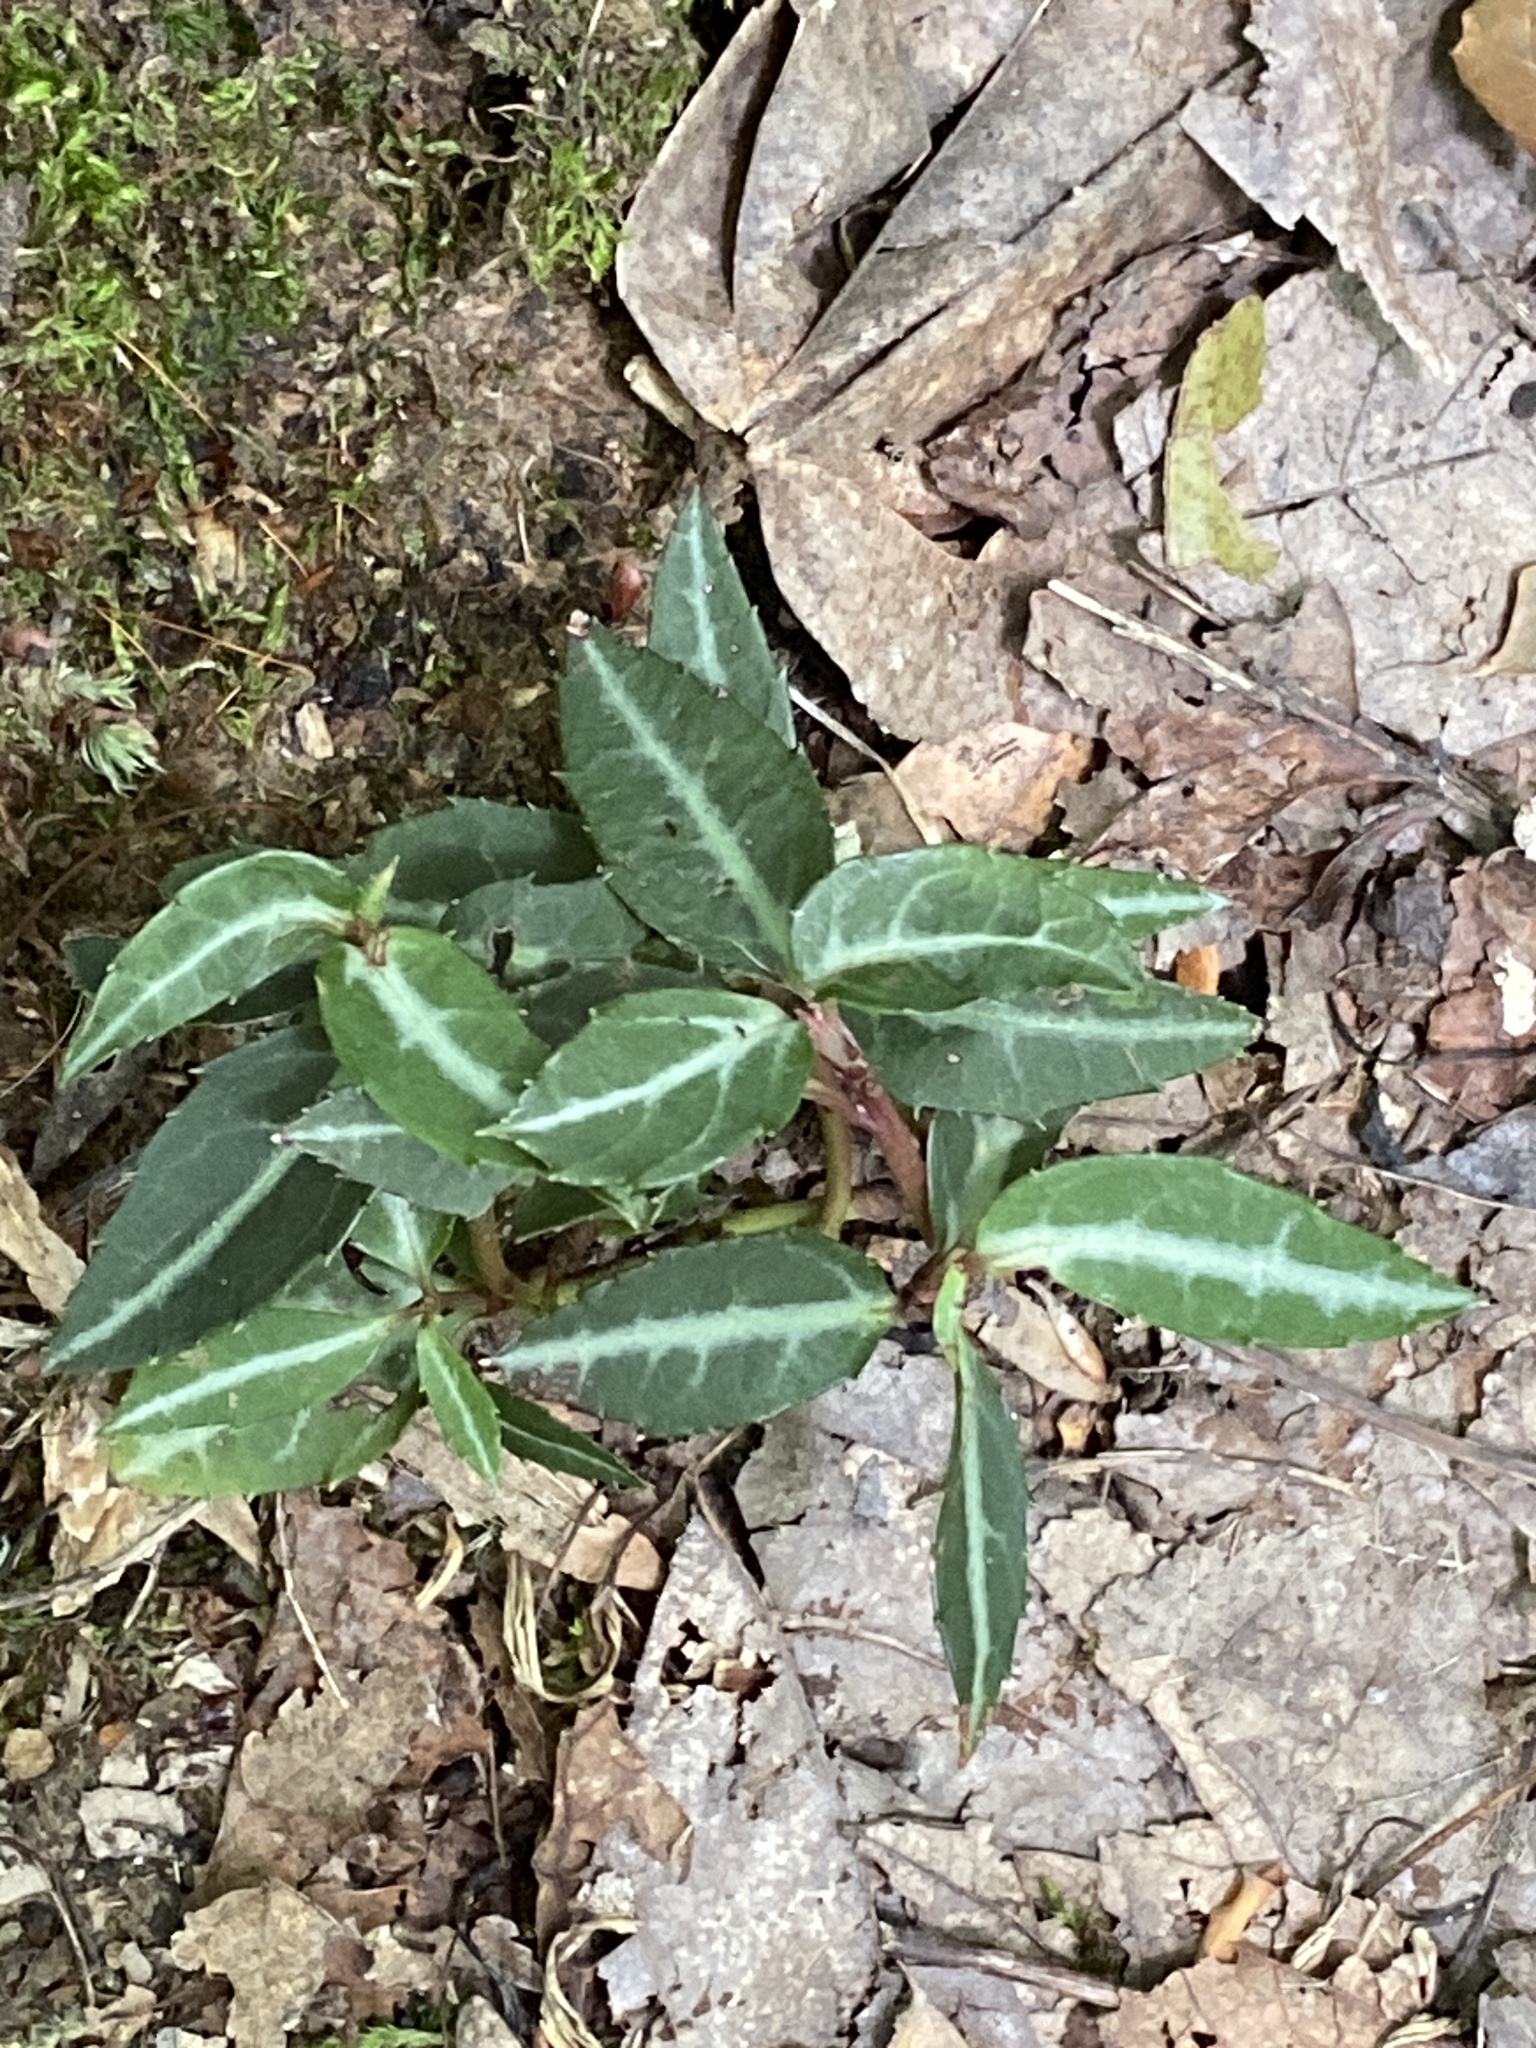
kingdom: Plantae
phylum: Tracheophyta
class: Magnoliopsida
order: Ericales
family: Ericaceae
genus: Chimaphila
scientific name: Chimaphila maculata
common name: Spotted pipsissewa
